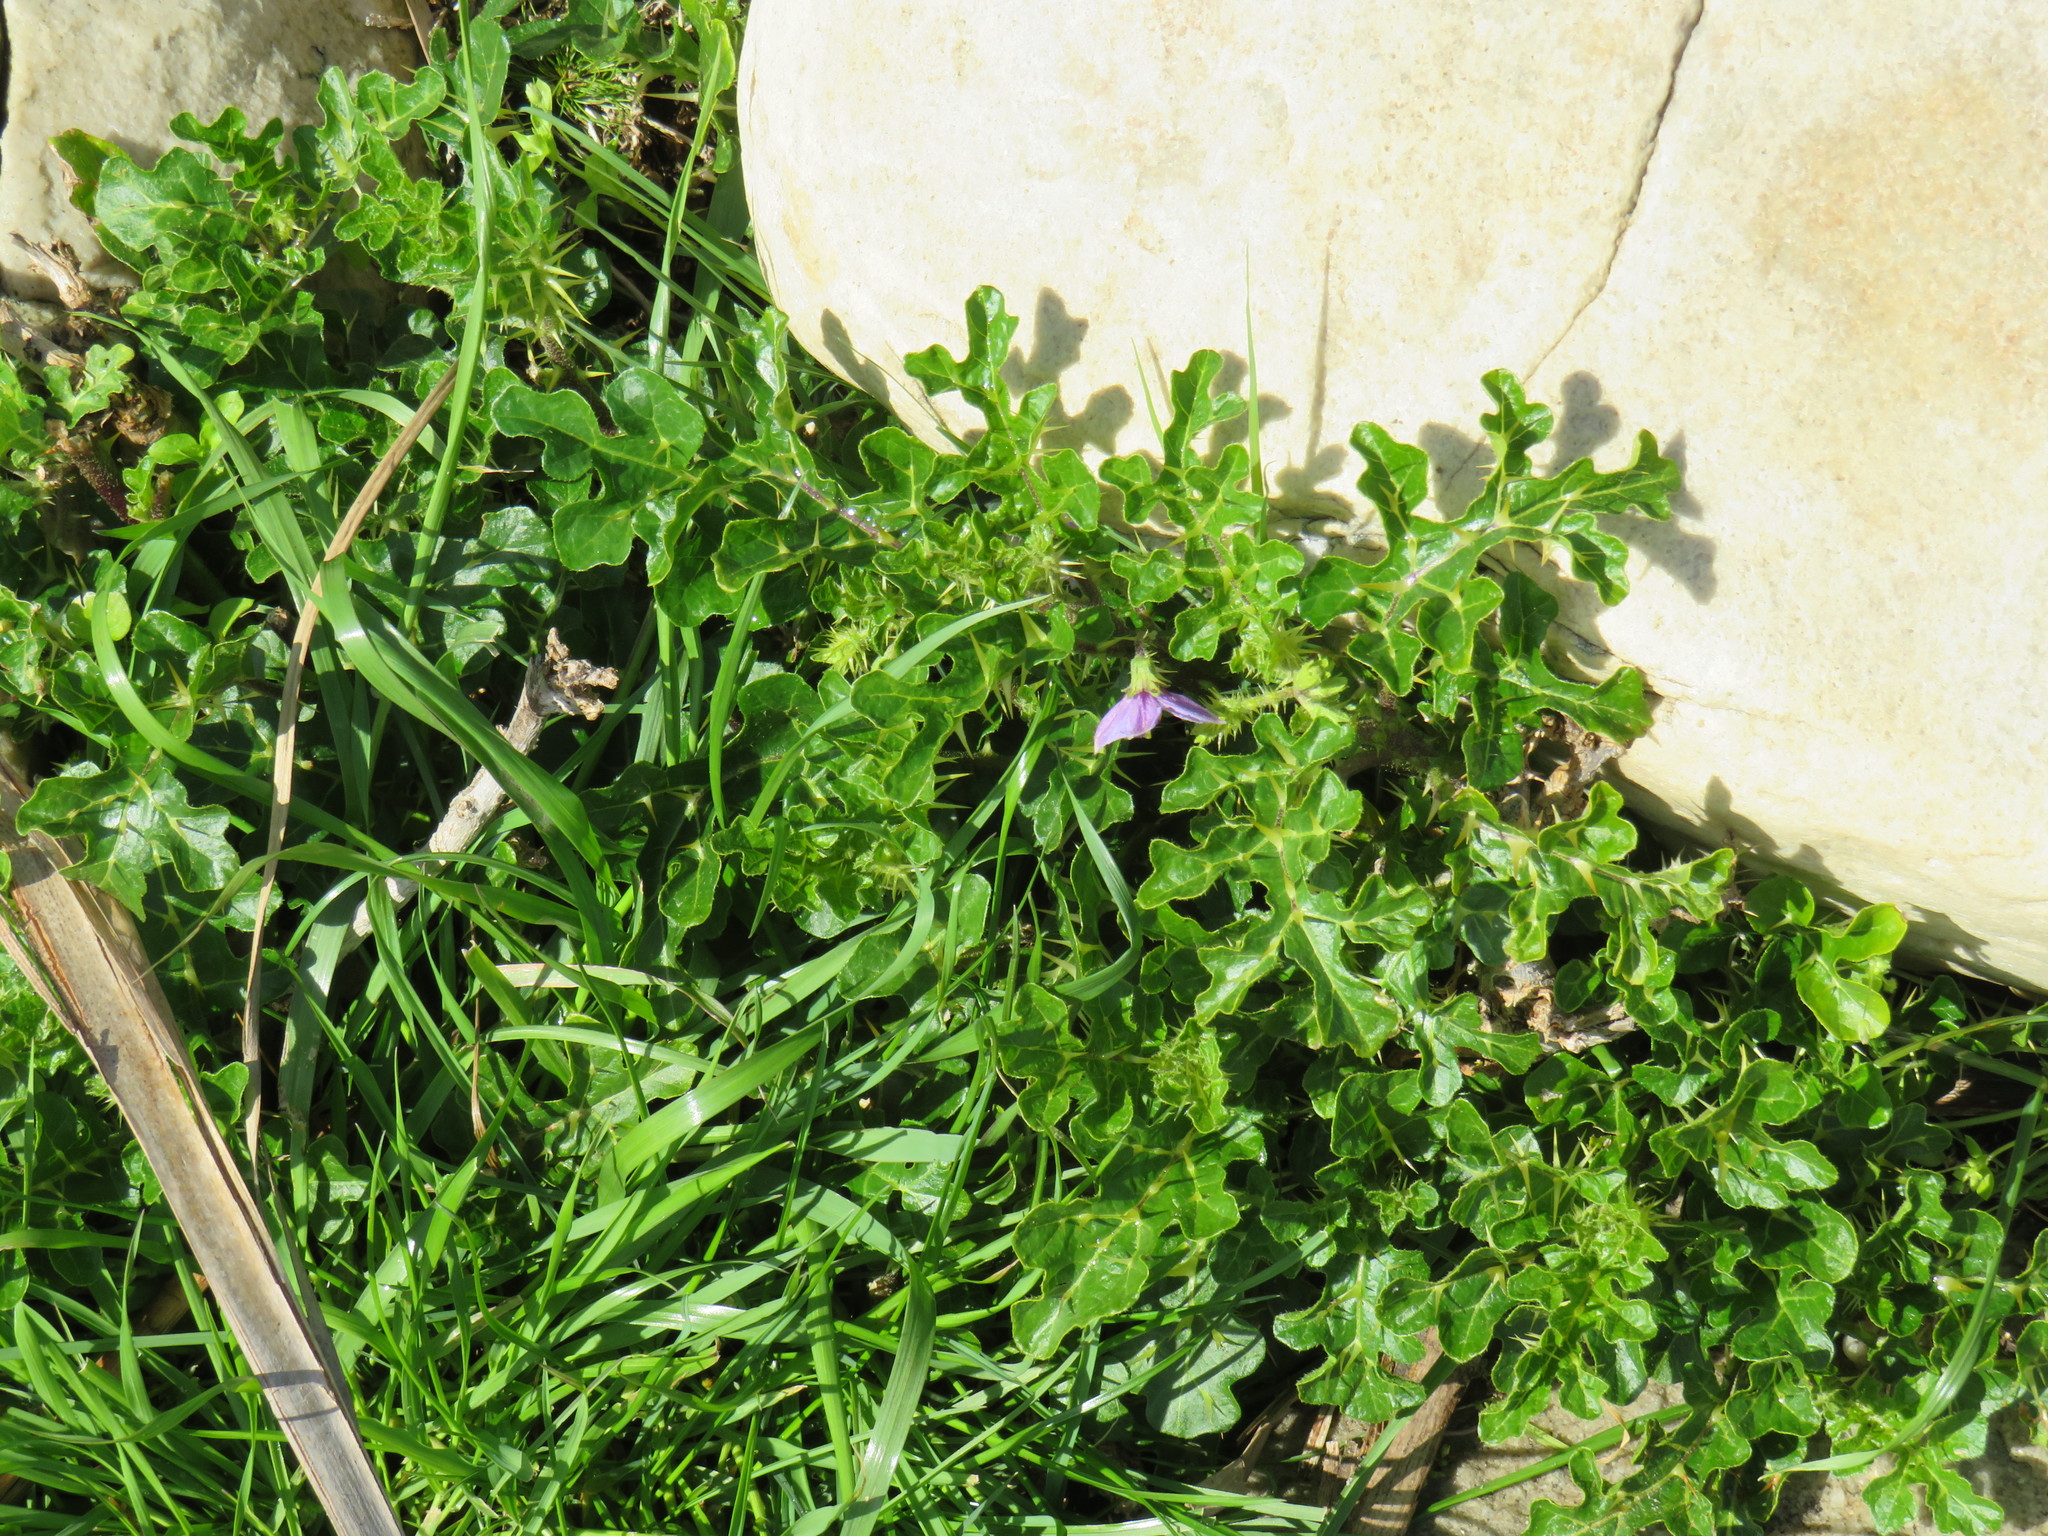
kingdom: Plantae
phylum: Tracheophyta
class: Magnoliopsida
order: Solanales
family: Solanaceae
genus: Solanum
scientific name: Solanum linnaeanum
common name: Nightshade
